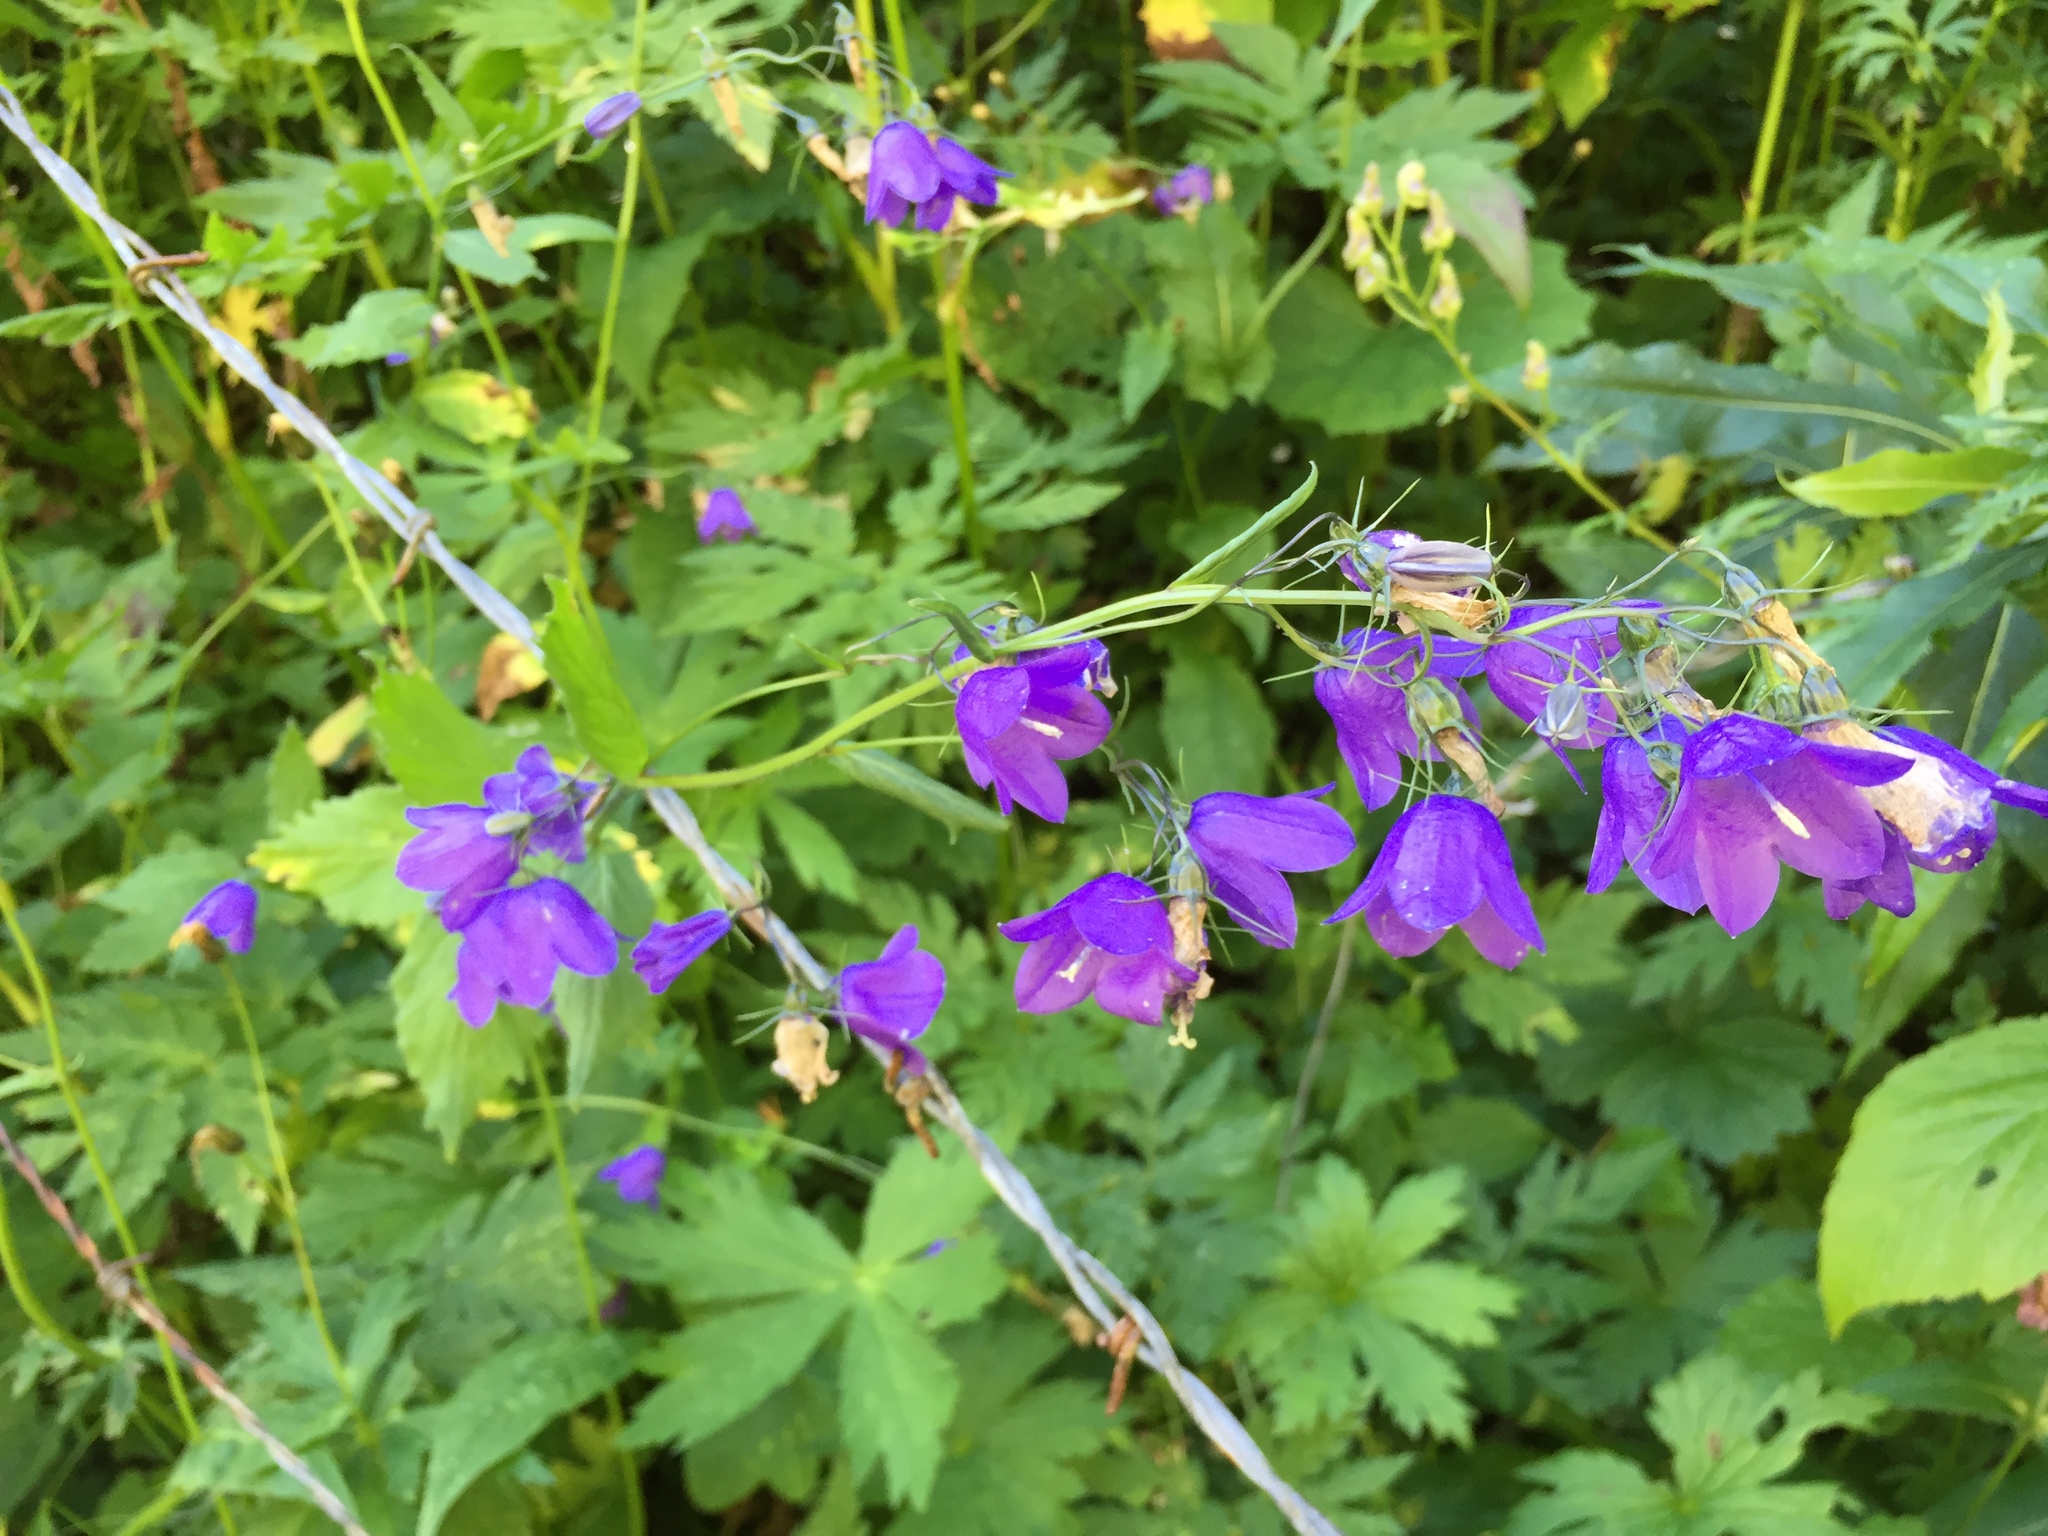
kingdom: Plantae
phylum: Tracheophyta
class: Magnoliopsida
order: Asterales
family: Campanulaceae
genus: Campanula
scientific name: Campanula rhomboidalis
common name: Broad-leaved harebell
